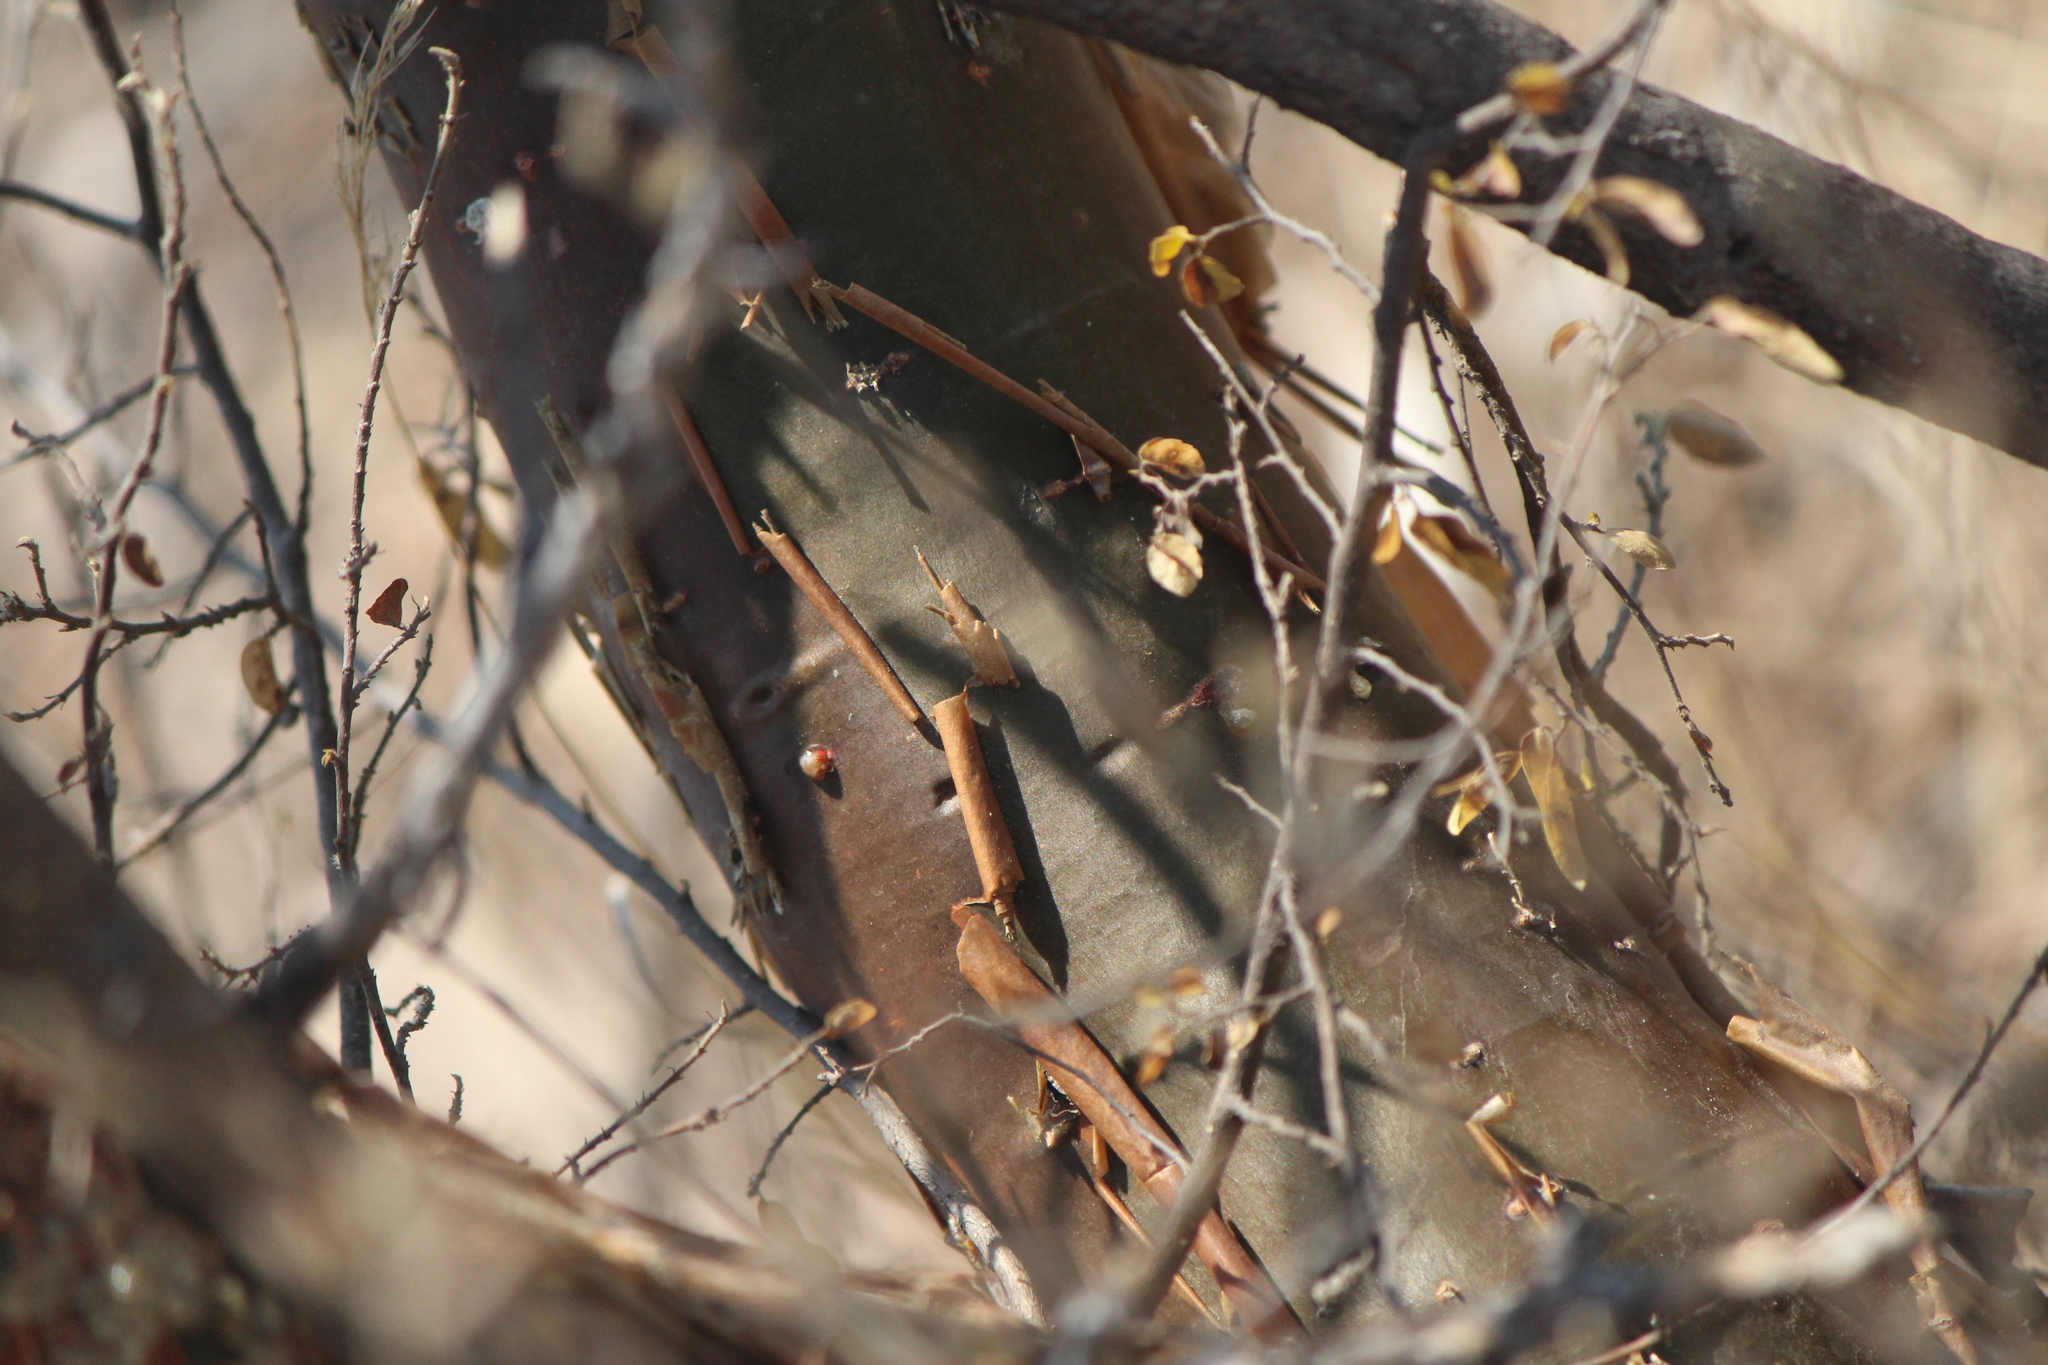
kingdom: Plantae
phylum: Tracheophyta
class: Magnoliopsida
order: Sapindales
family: Burseraceae
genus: Bursera
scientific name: Bursera fagaroides
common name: Elephant tree
